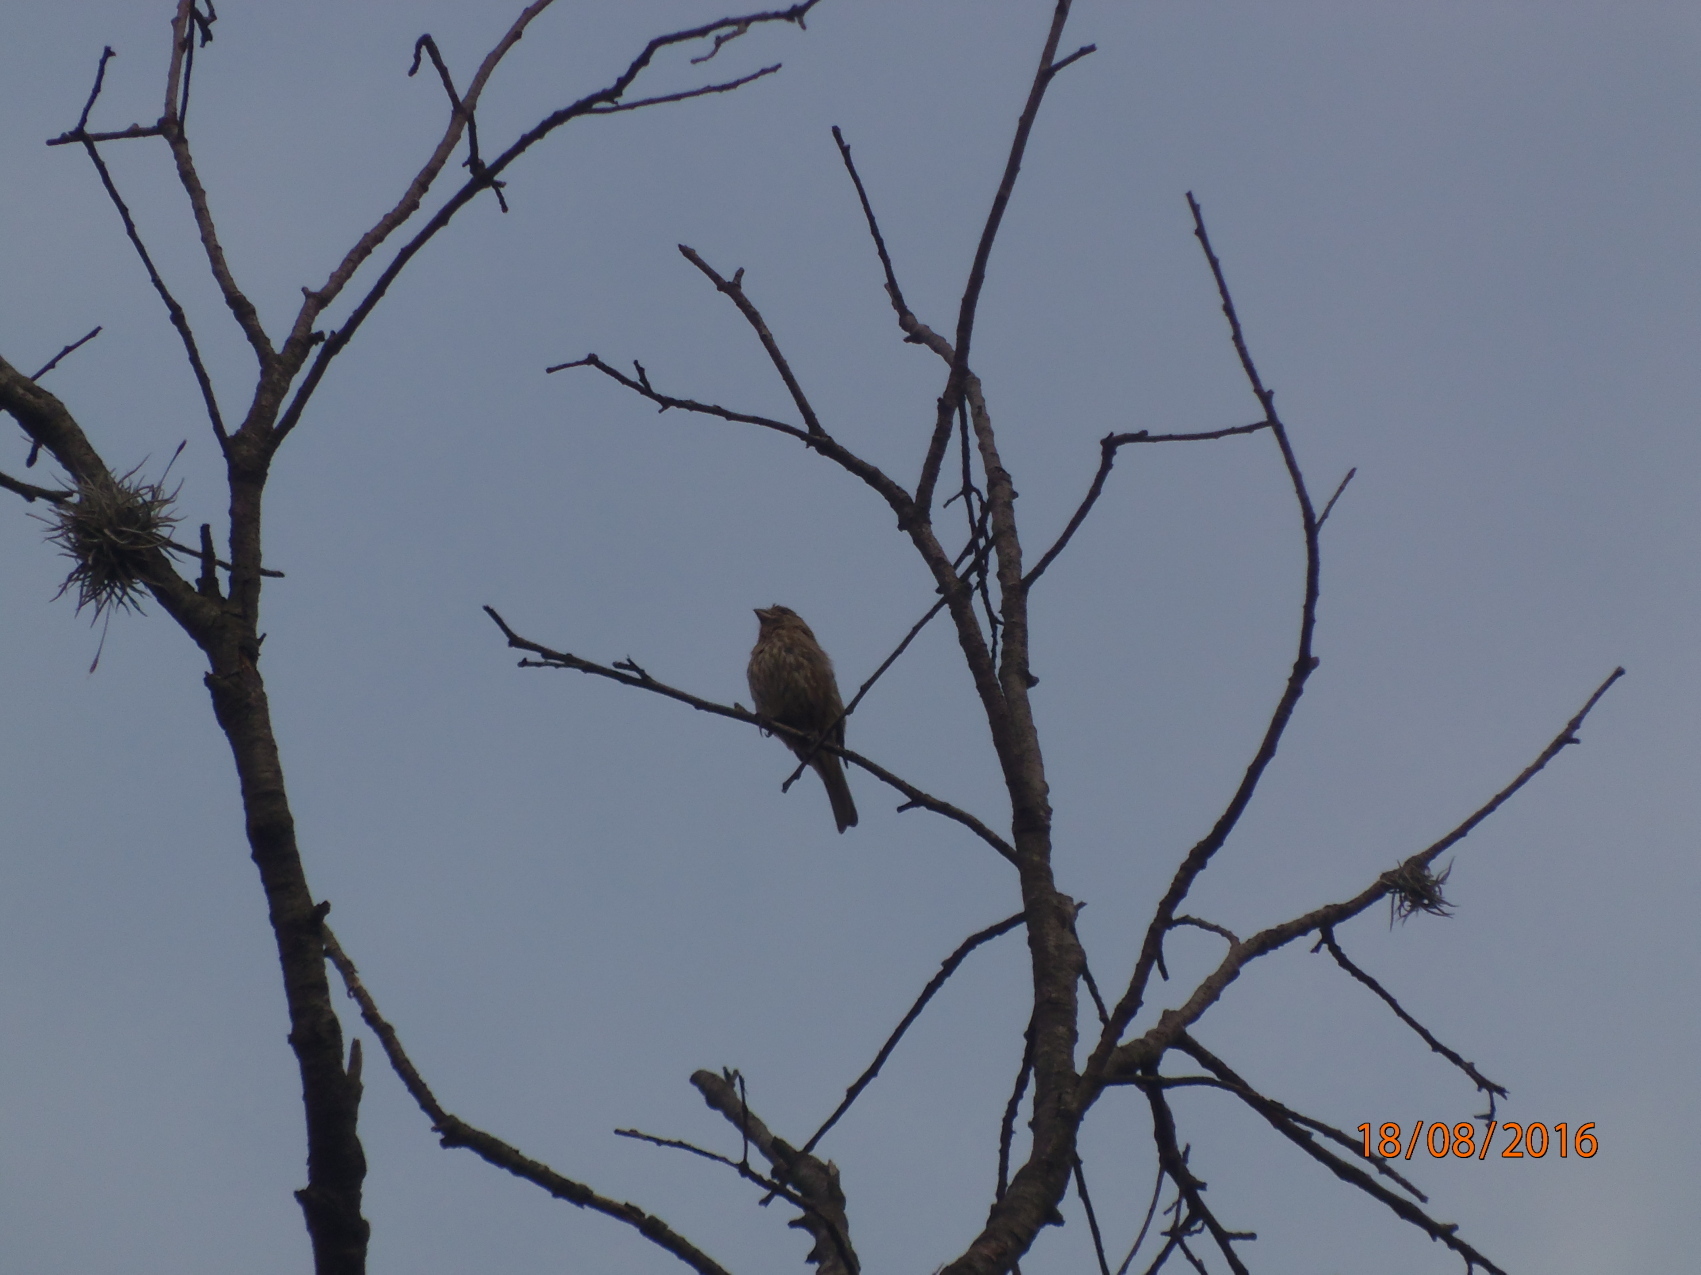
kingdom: Animalia
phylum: Chordata
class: Aves
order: Passeriformes
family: Fringillidae
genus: Haemorhous
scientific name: Haemorhous mexicanus
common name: House finch
